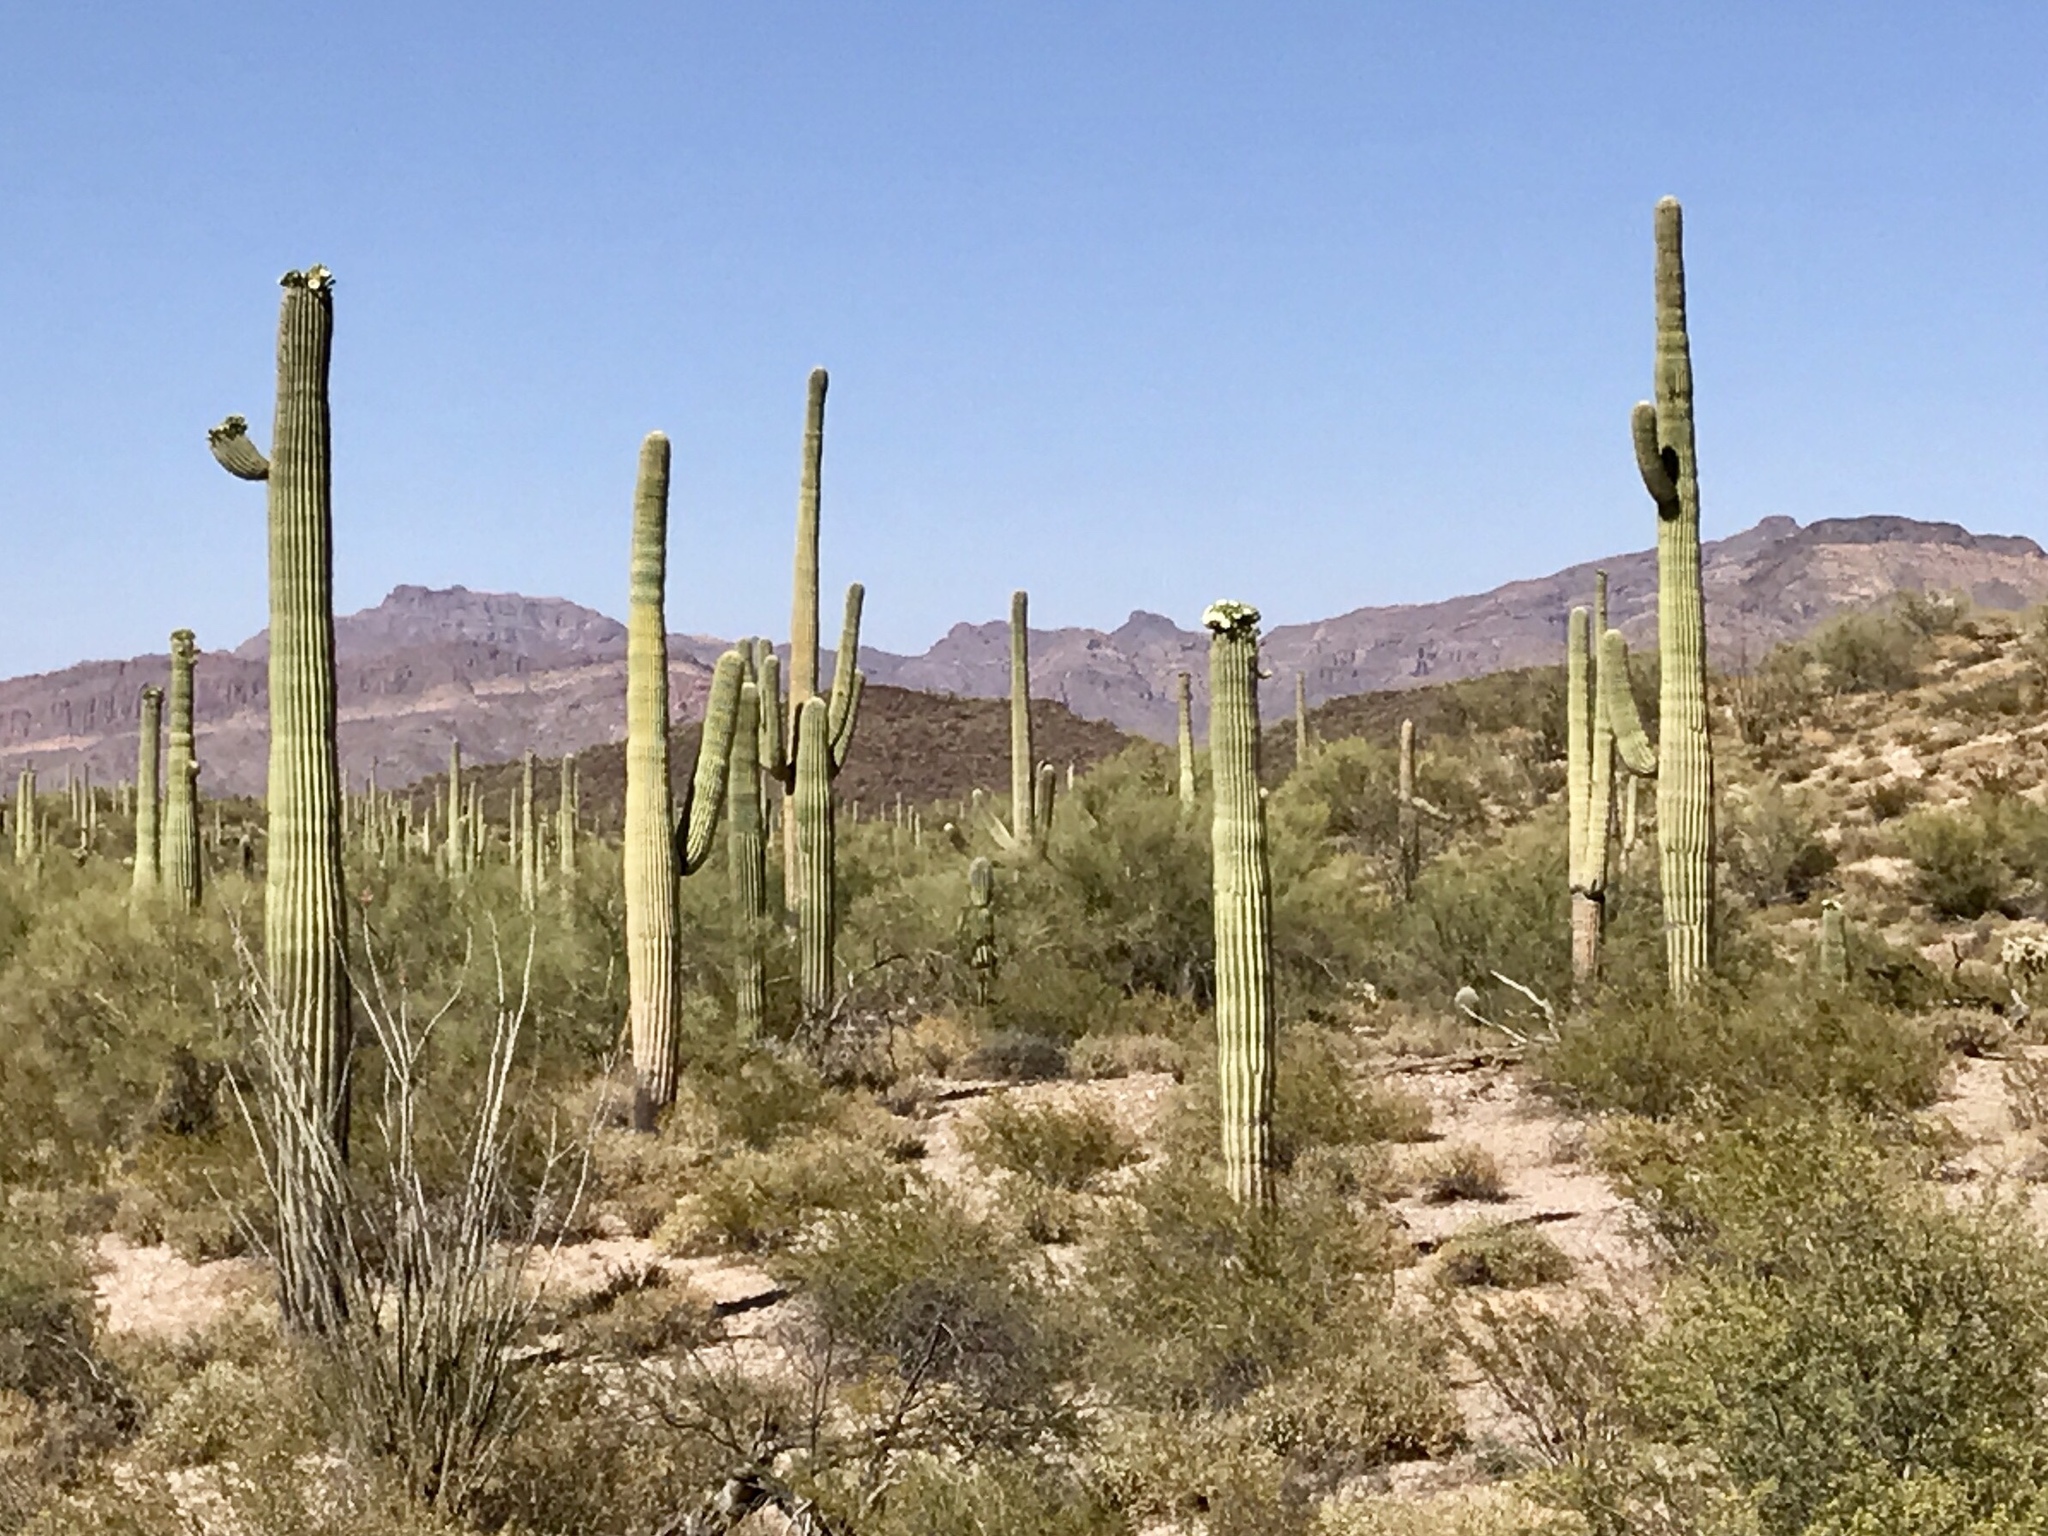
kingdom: Plantae
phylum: Tracheophyta
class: Magnoliopsida
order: Caryophyllales
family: Cactaceae
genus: Carnegiea
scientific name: Carnegiea gigantea
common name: Saguaro
